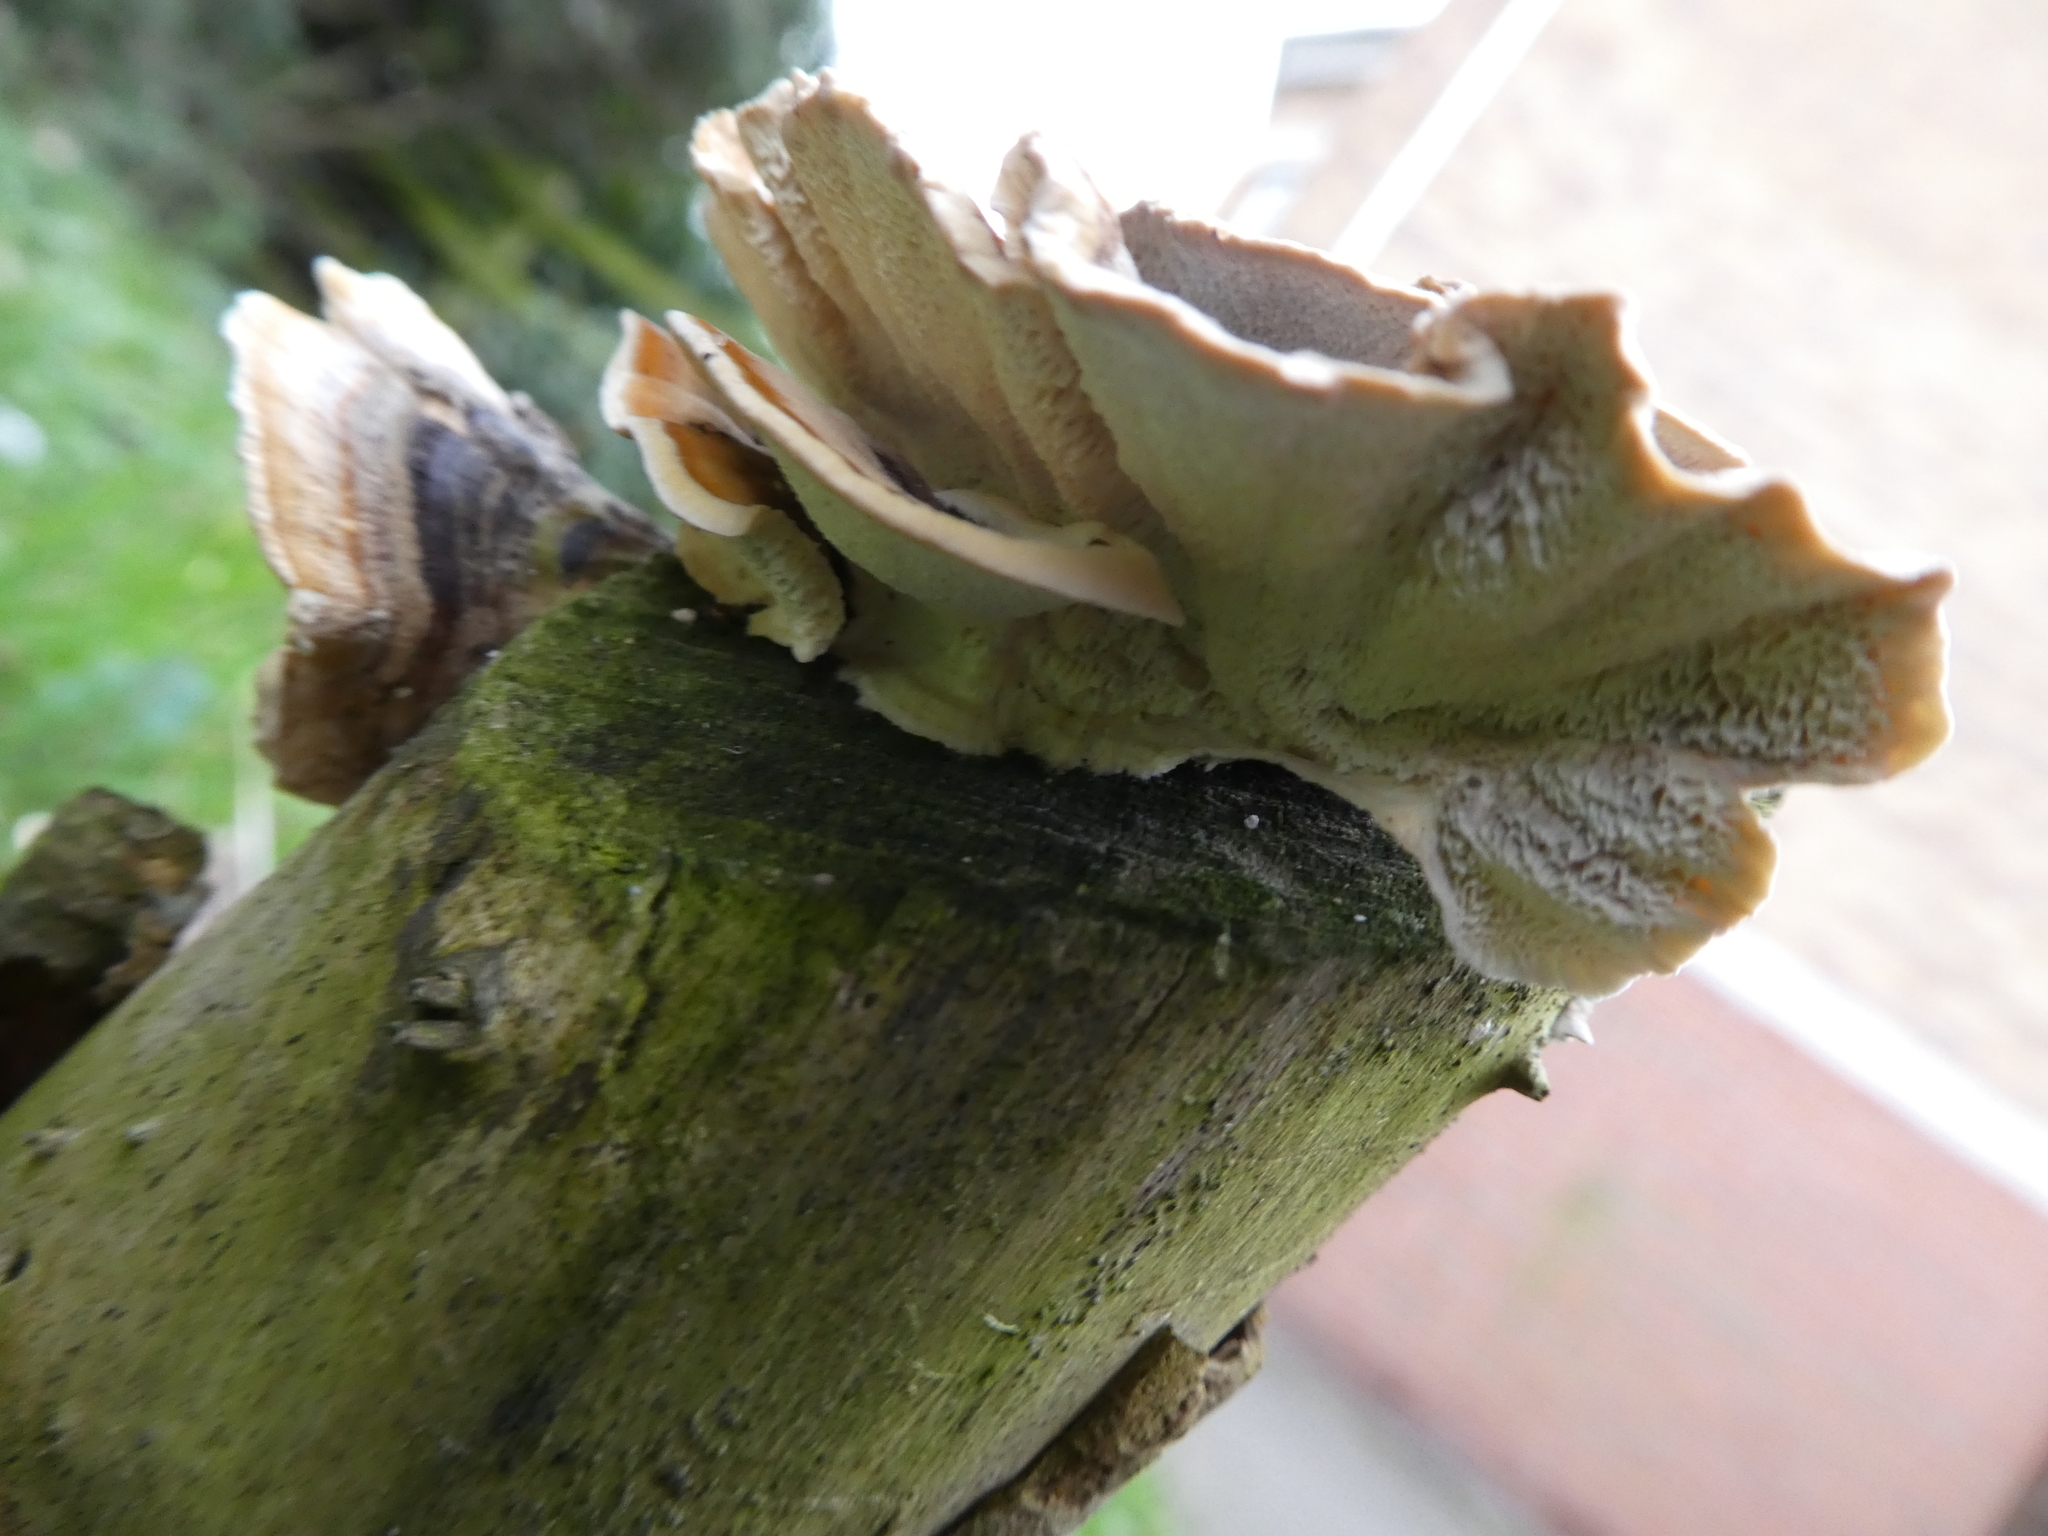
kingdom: Fungi
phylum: Basidiomycota
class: Agaricomycetes
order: Polyporales
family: Polyporaceae
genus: Trametes
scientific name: Trametes versicolor
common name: Turkeytail
